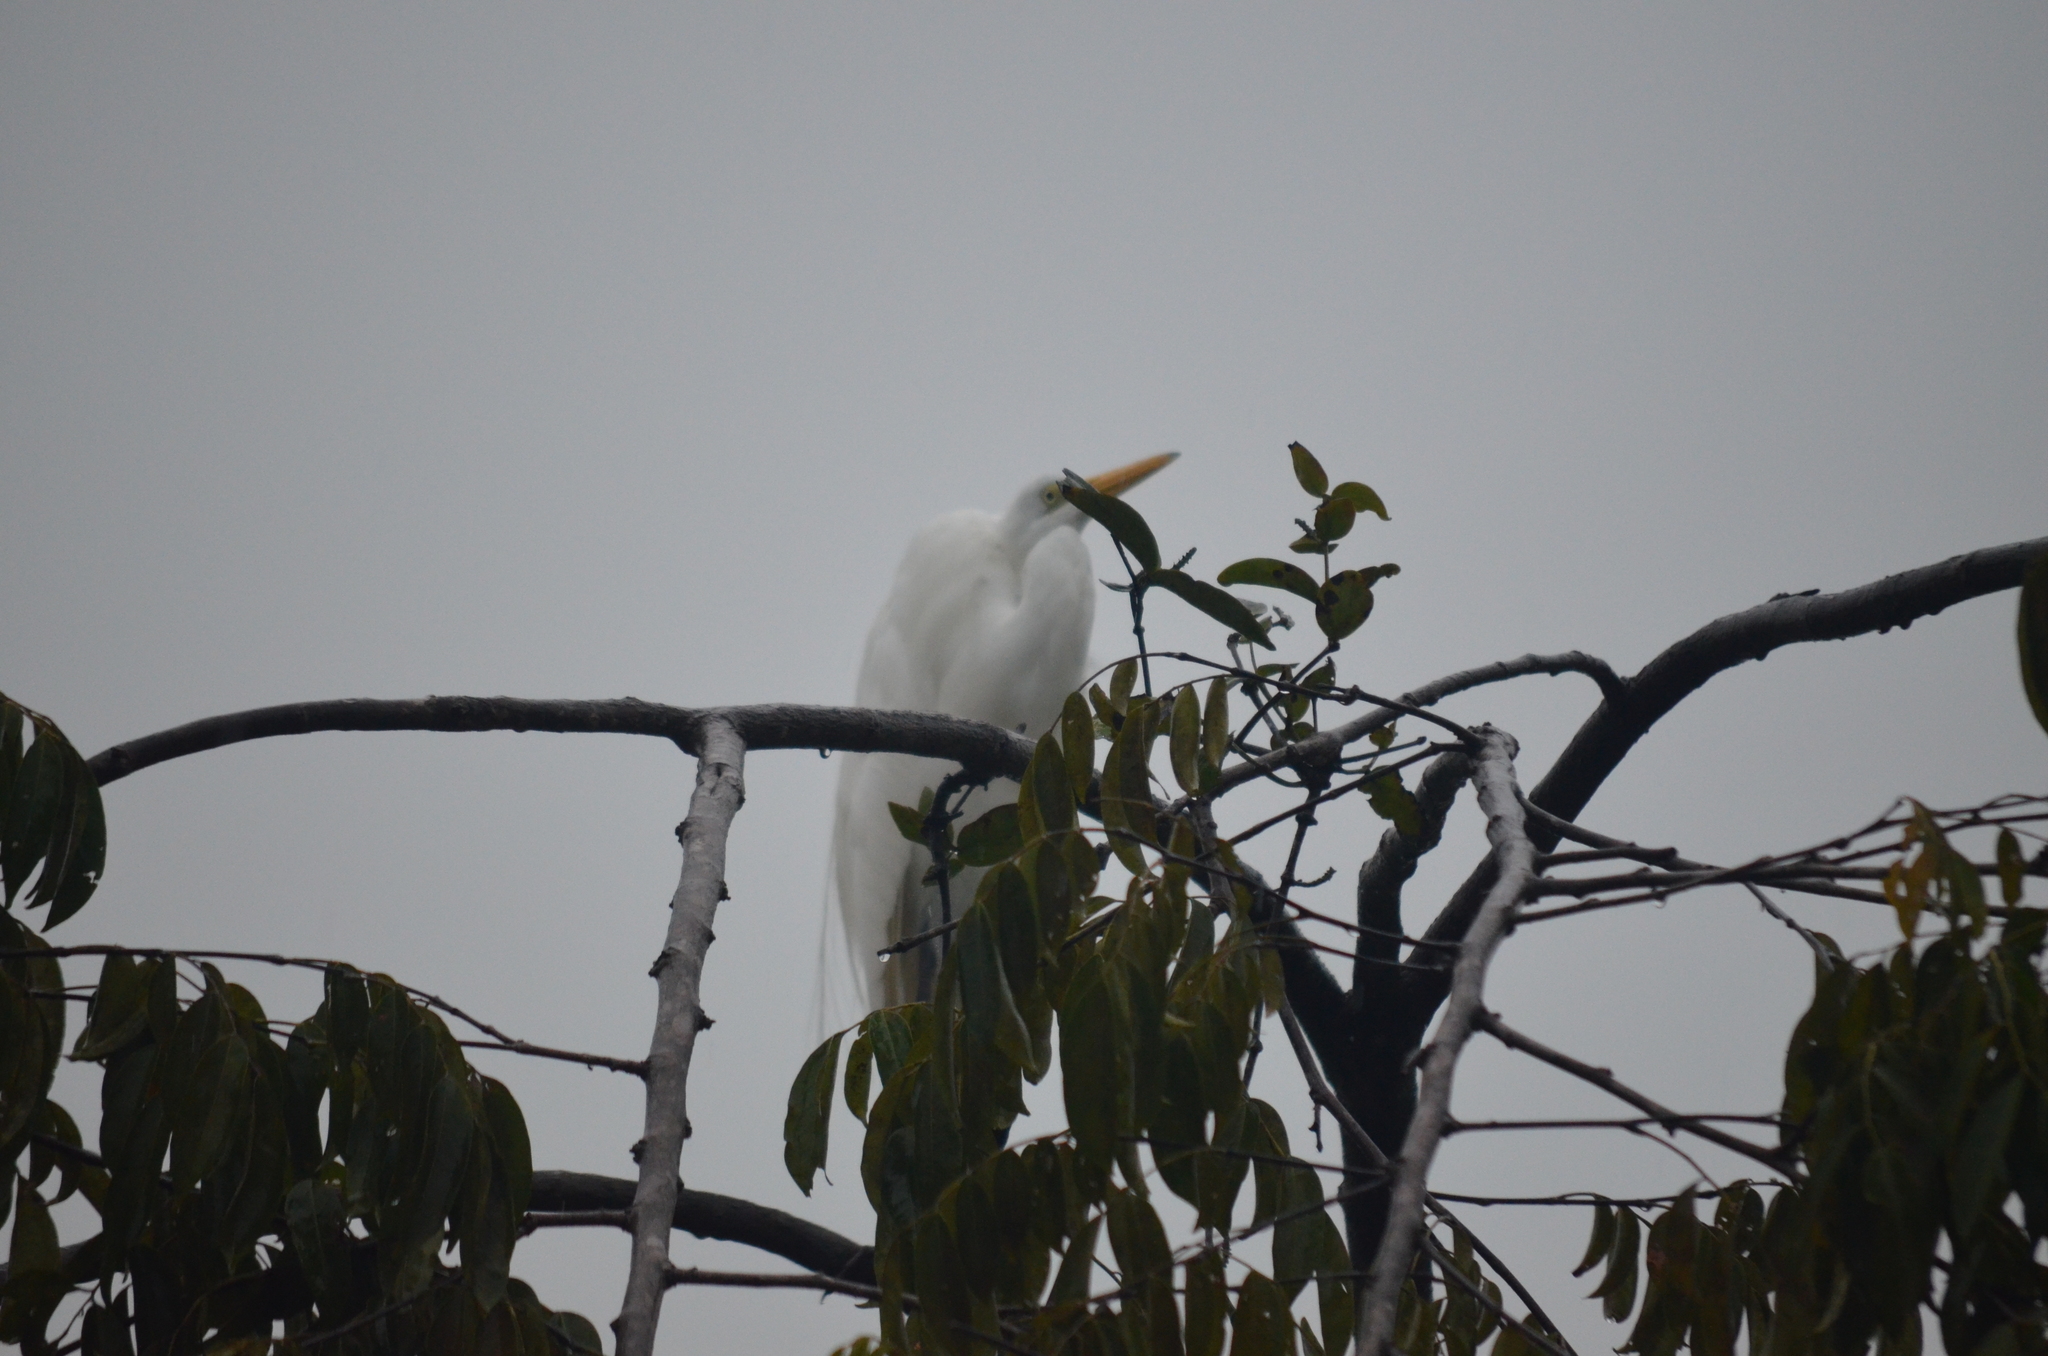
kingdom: Animalia
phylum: Chordata
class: Aves
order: Pelecaniformes
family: Ardeidae
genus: Ardea
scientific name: Ardea alba
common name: Great egret
